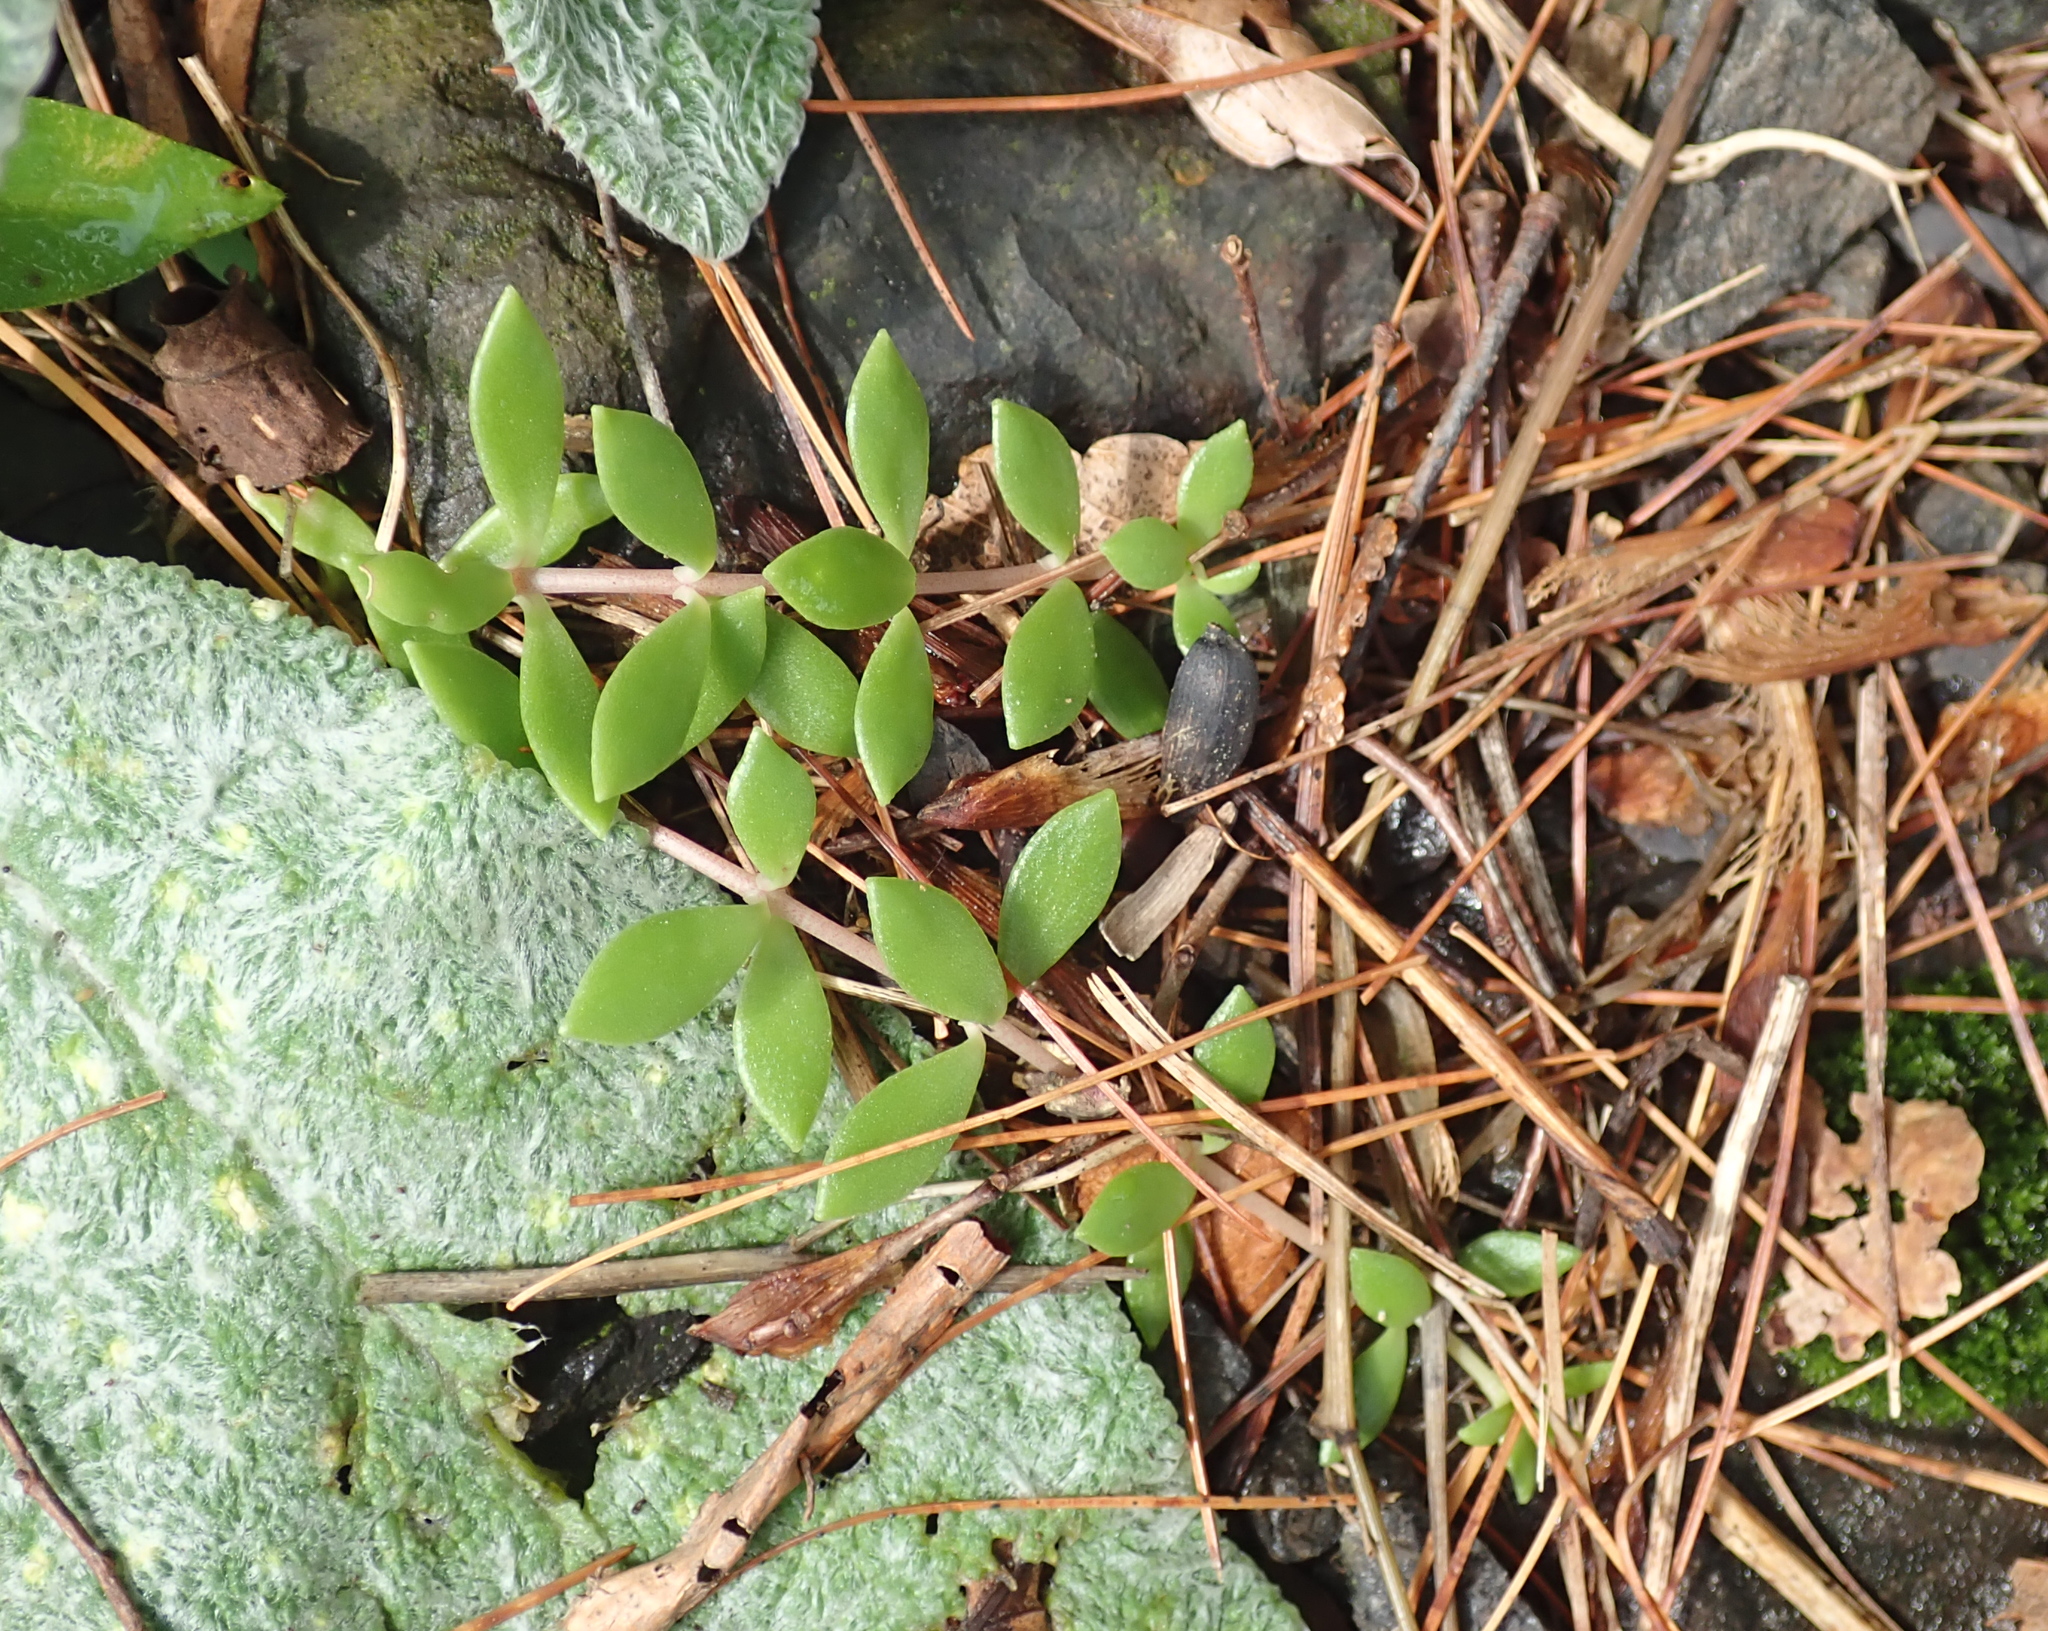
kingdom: Plantae
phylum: Tracheophyta
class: Magnoliopsida
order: Saxifragales
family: Crassulaceae
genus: Sedum
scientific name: Sedum sarmentosum
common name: Stringy stonecrop
